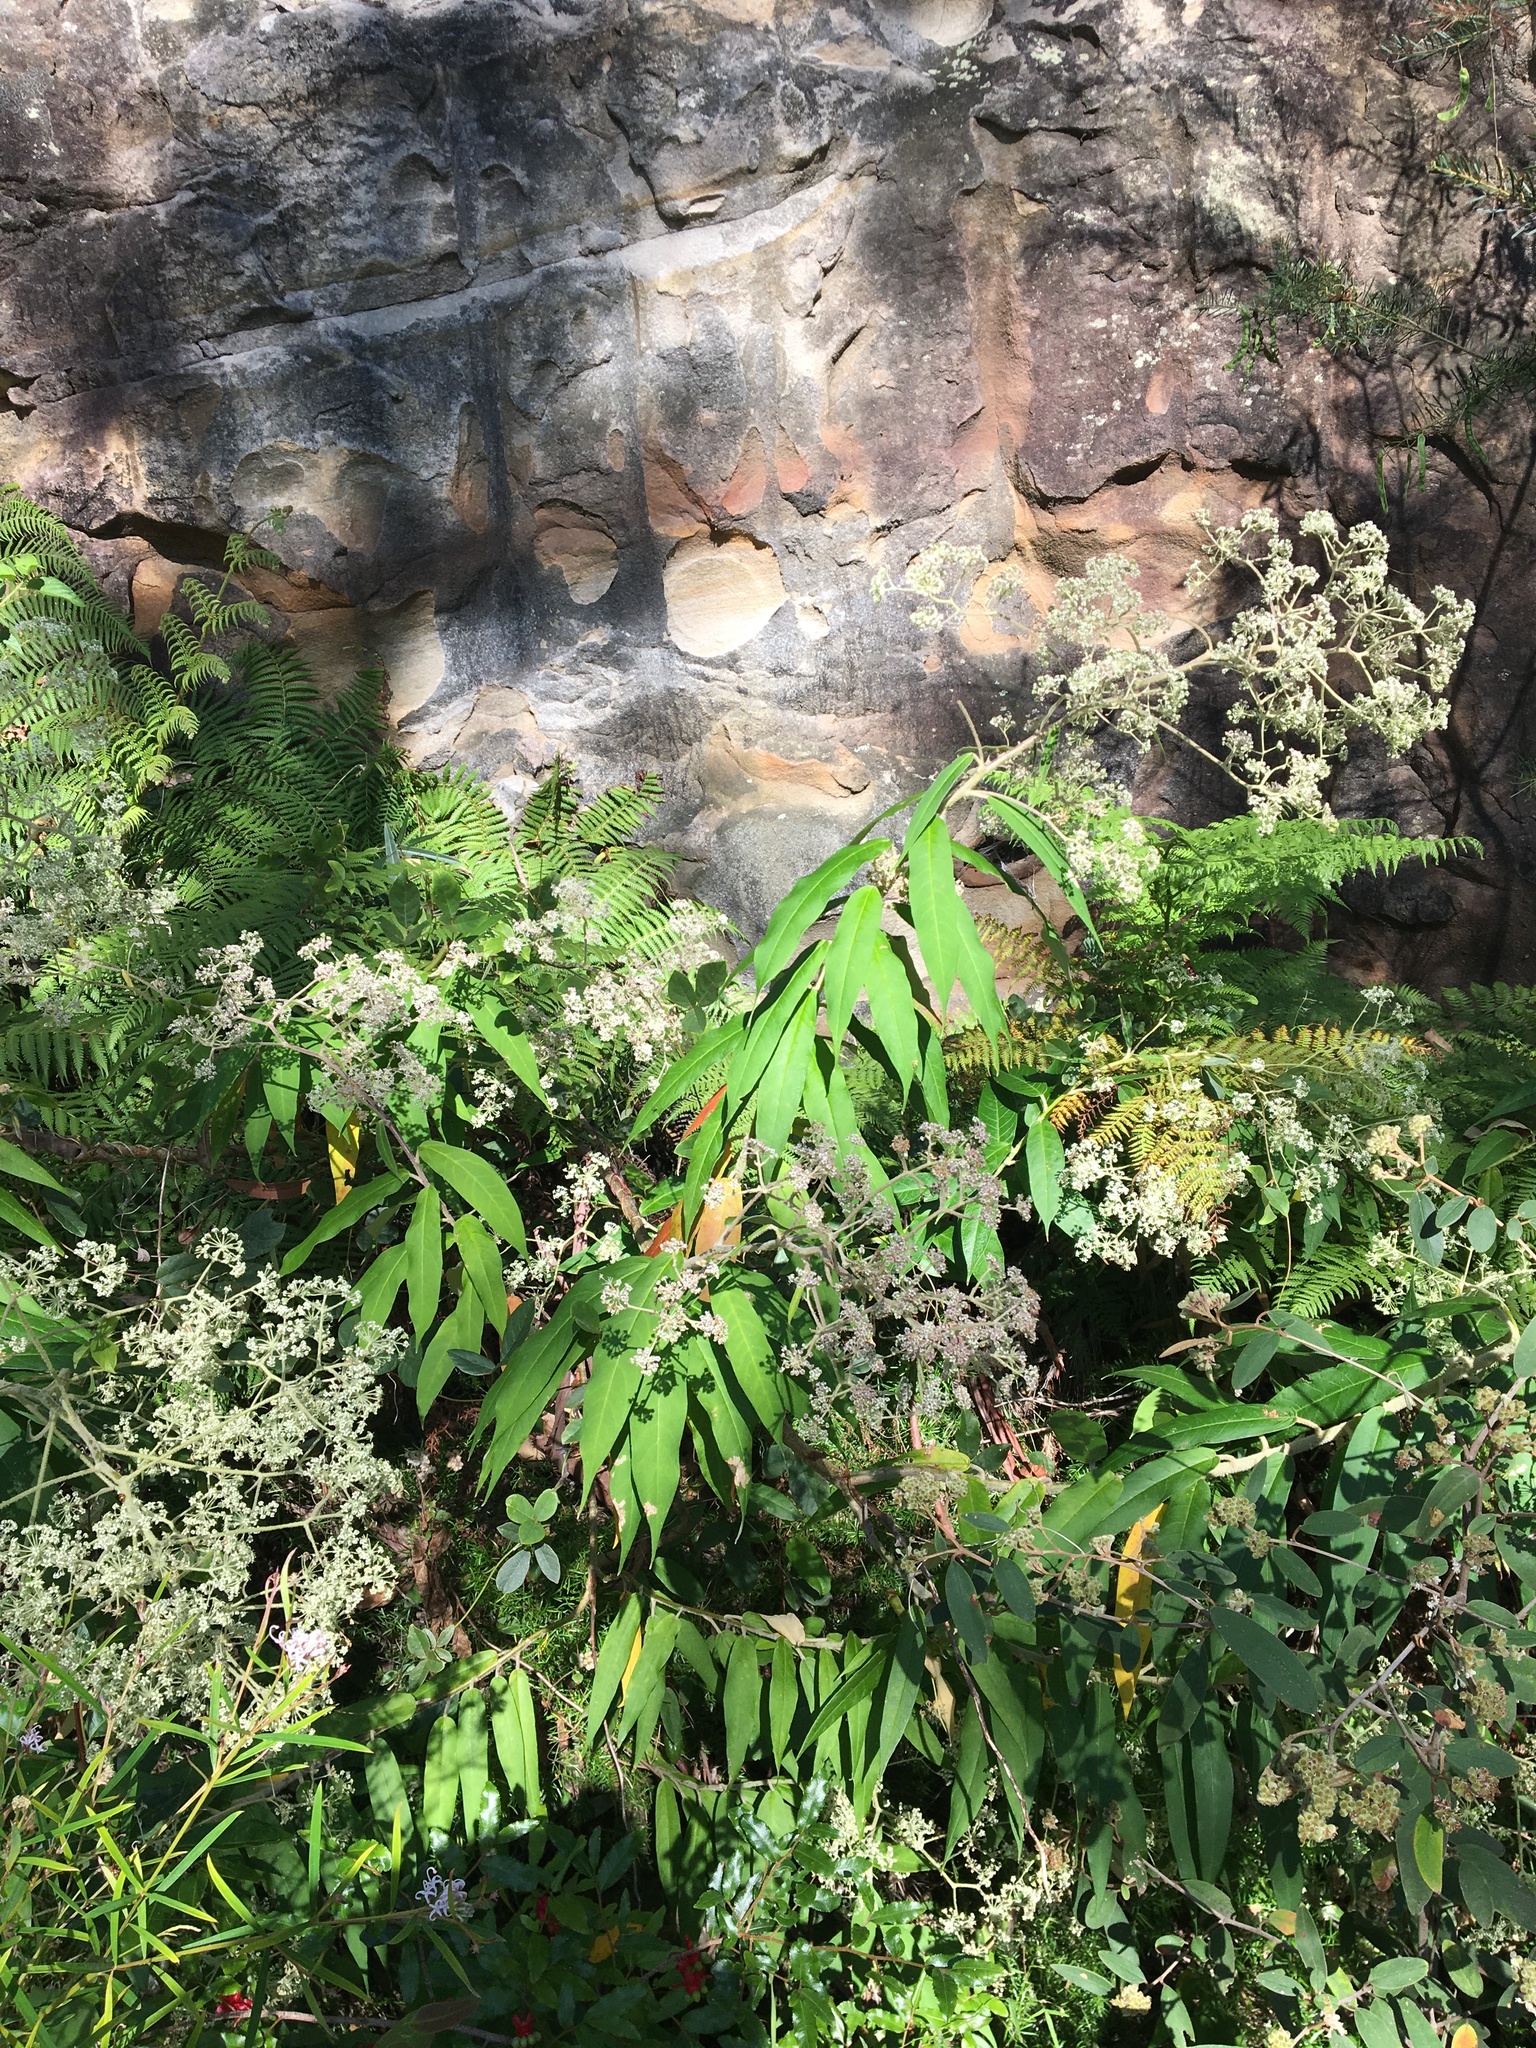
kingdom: Plantae
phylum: Tracheophyta
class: Magnoliopsida
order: Apiales
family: Araliaceae
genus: Astrotricha
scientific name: Astrotricha floccosa
